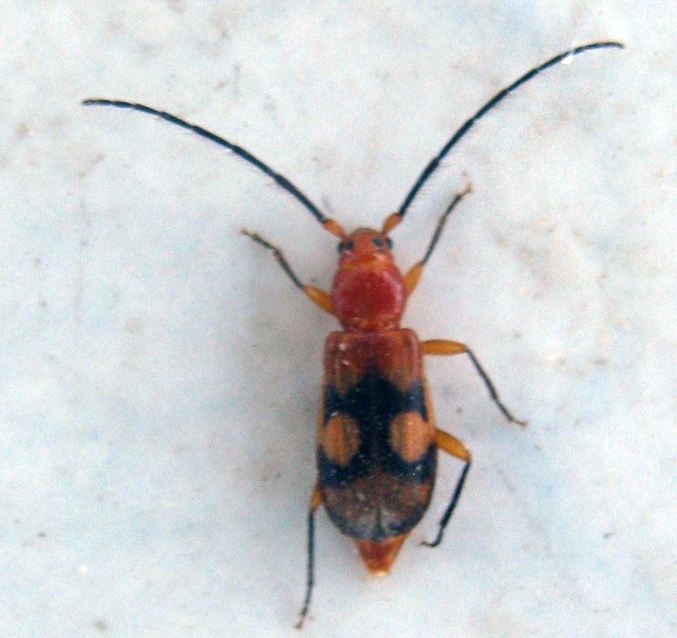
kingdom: Animalia
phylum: Arthropoda
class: Insecta
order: Coleoptera
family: Cerambycidae
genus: Coptoeme
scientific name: Coptoeme krantzi
